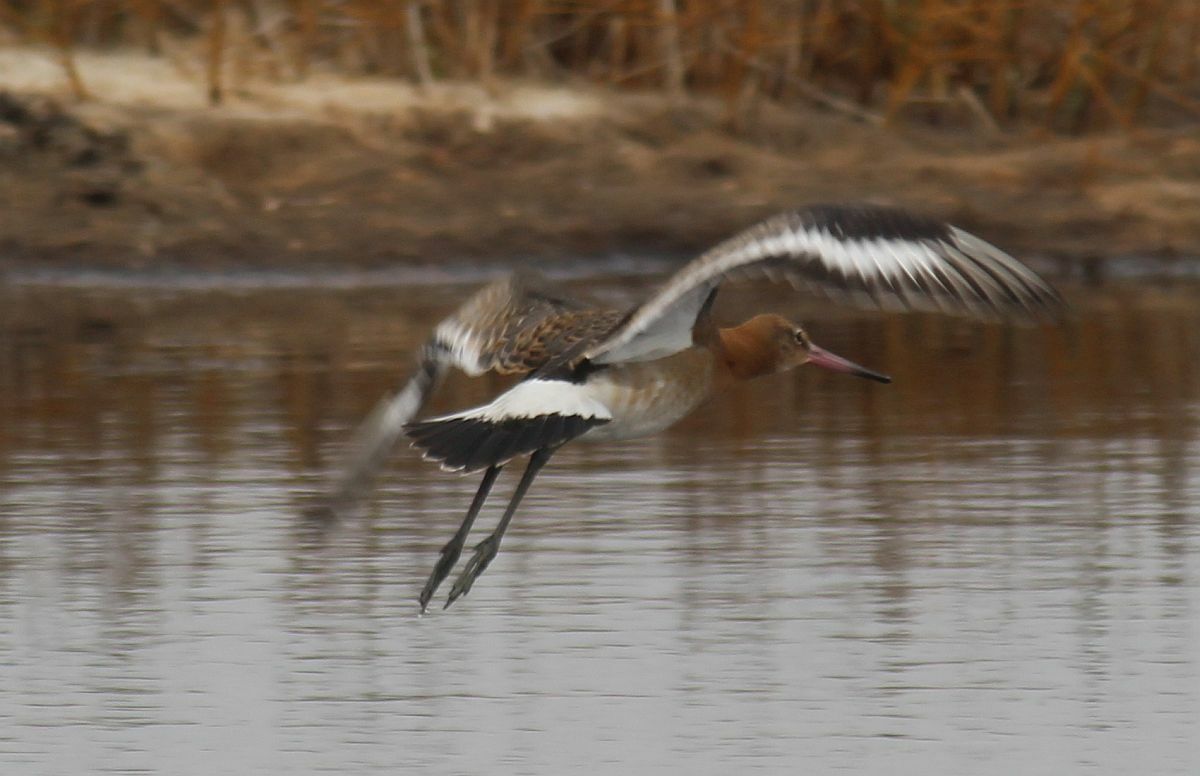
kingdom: Animalia
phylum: Chordata
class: Aves
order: Charadriiformes
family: Scolopacidae
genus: Limosa
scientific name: Limosa limosa
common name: Black-tailed godwit
